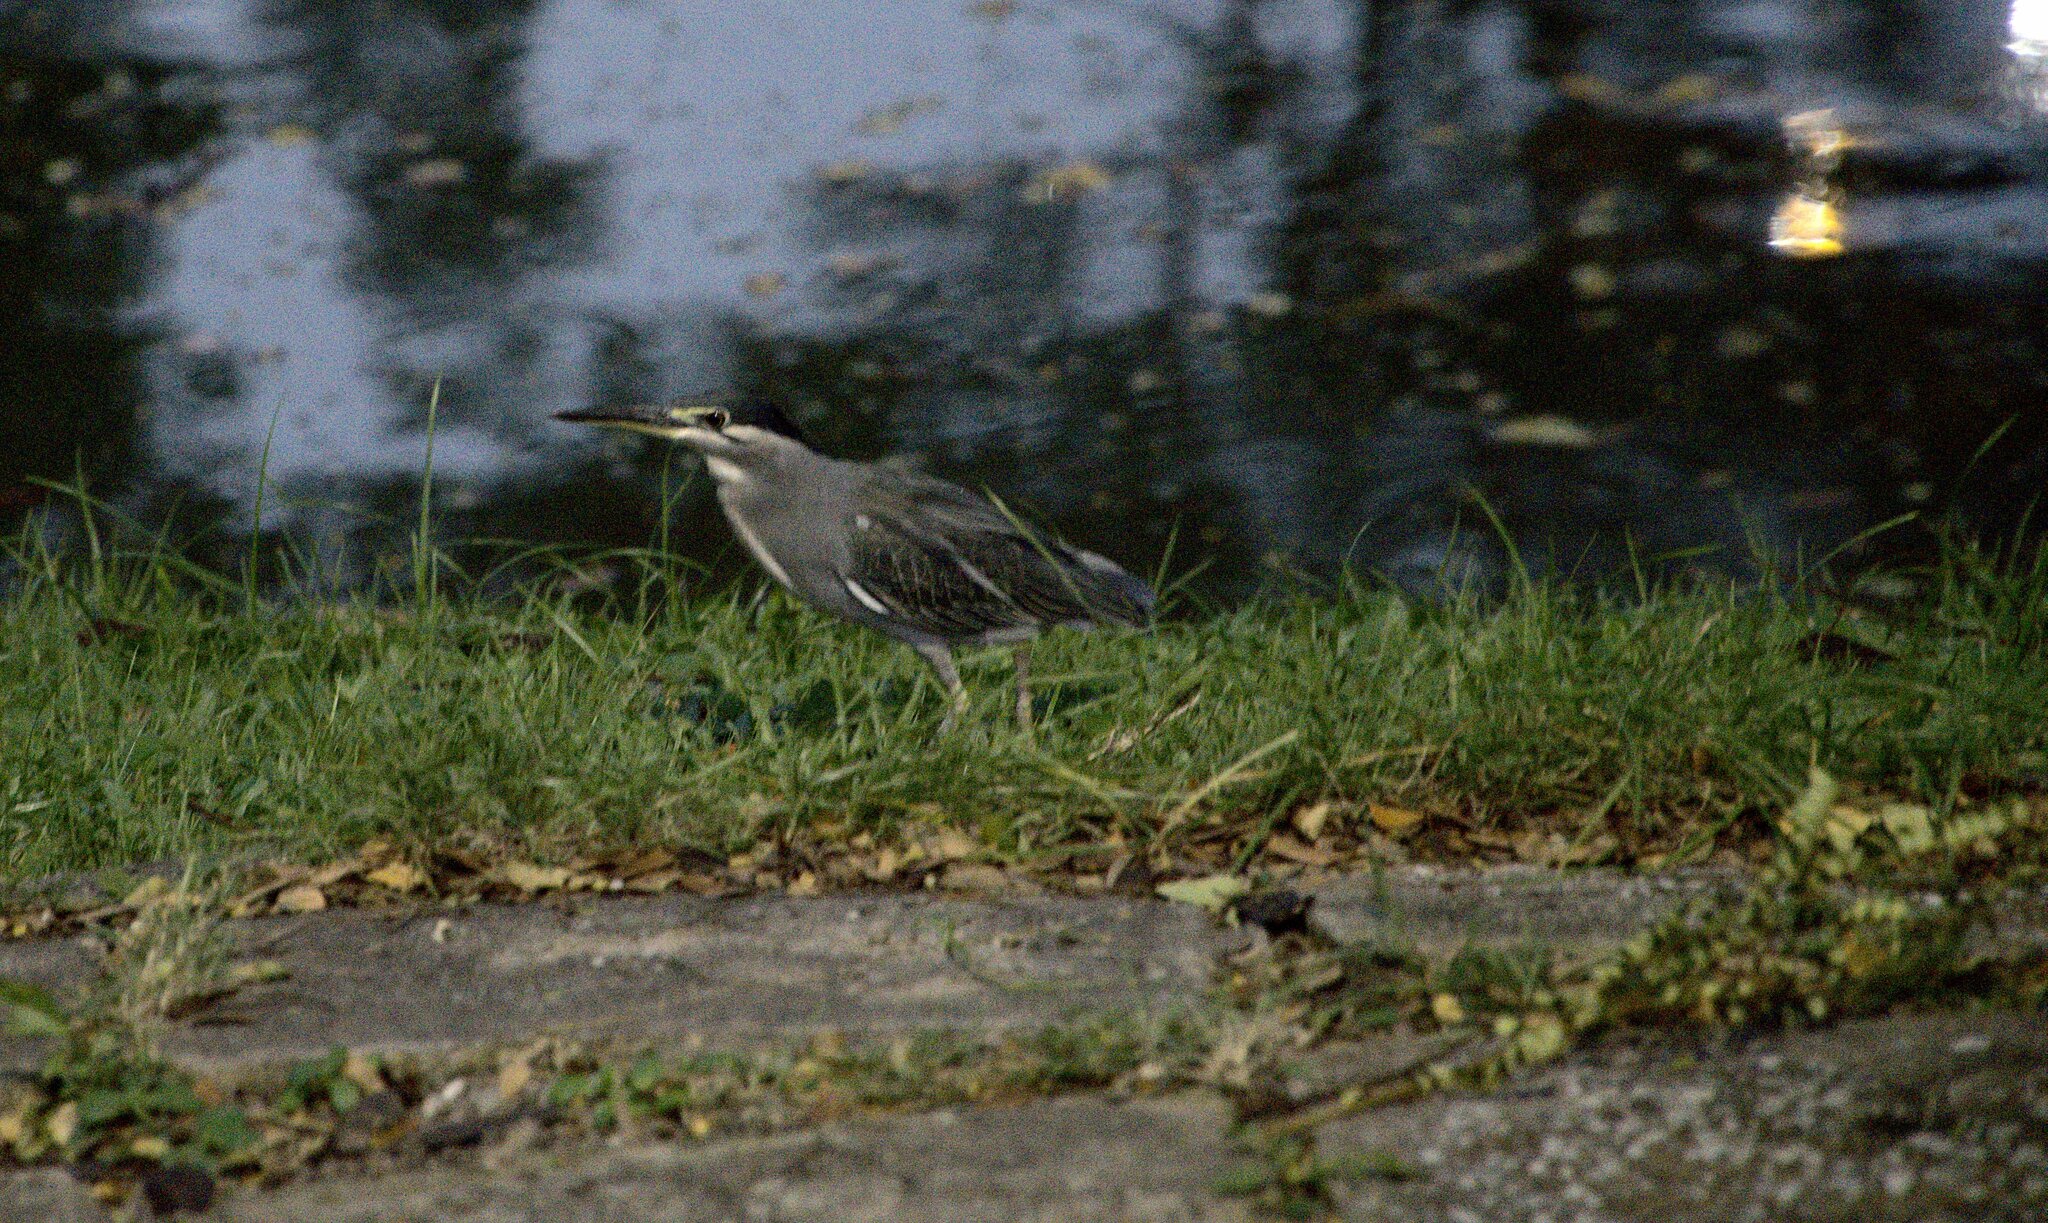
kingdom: Animalia
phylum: Chordata
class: Aves
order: Pelecaniformes
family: Ardeidae
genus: Butorides
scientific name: Butorides striata
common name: Striated heron
